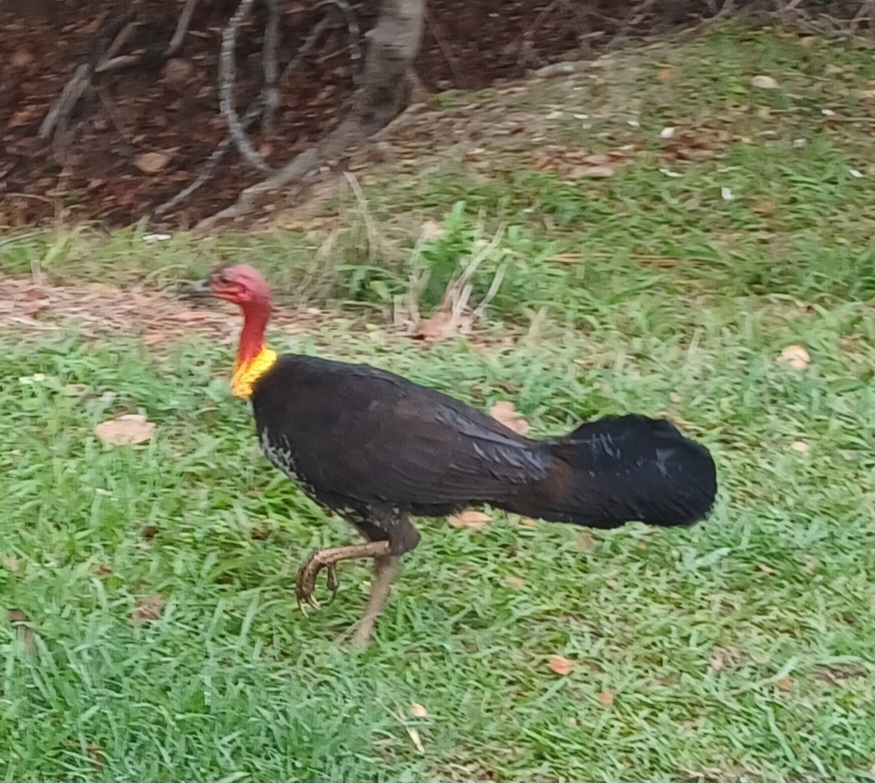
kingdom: Animalia
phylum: Chordata
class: Aves
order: Galliformes
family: Megapodiidae
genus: Alectura
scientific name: Alectura lathami
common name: Australian brushturkey
